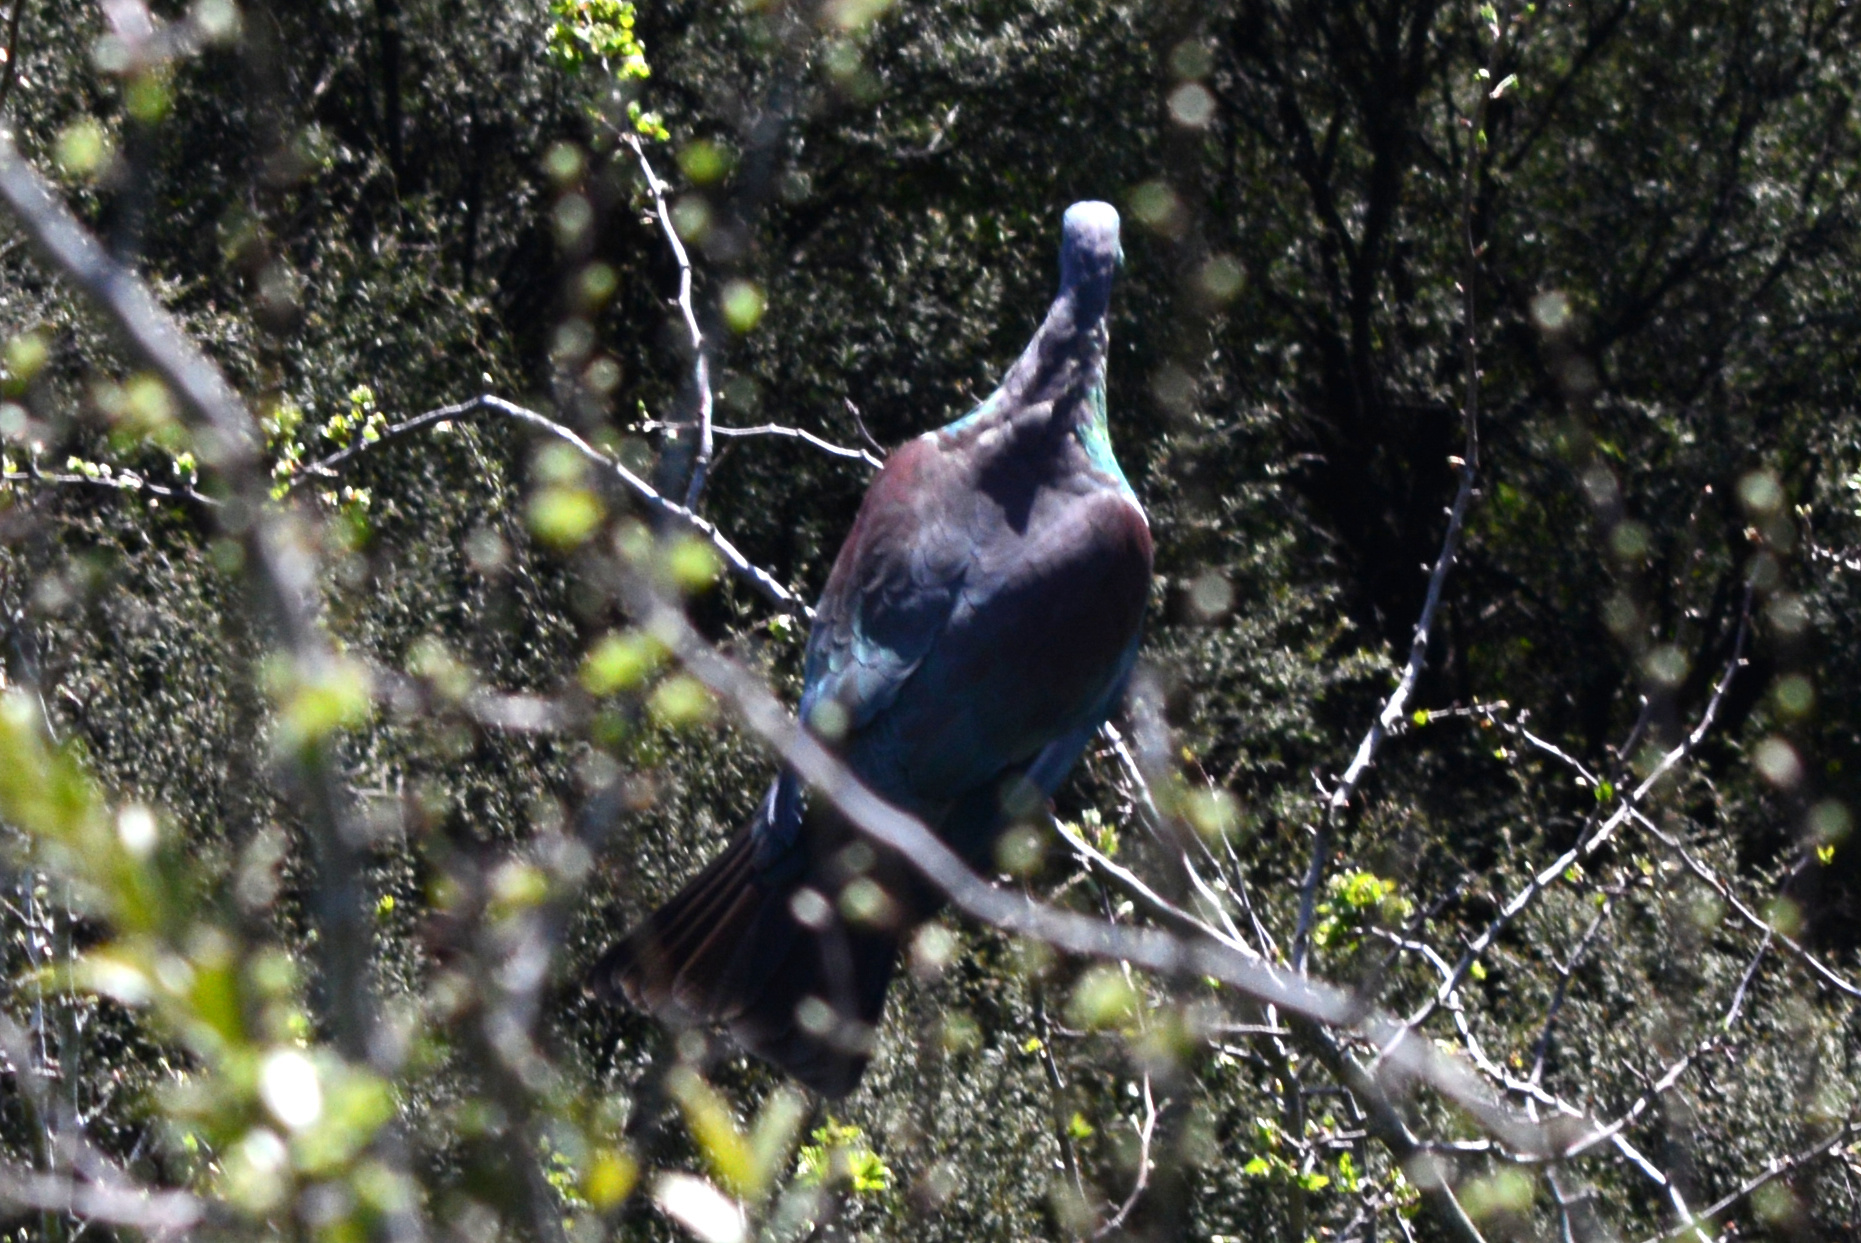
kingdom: Animalia
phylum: Chordata
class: Aves
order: Columbiformes
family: Columbidae
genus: Hemiphaga
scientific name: Hemiphaga novaeseelandiae
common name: New zealand pigeon
